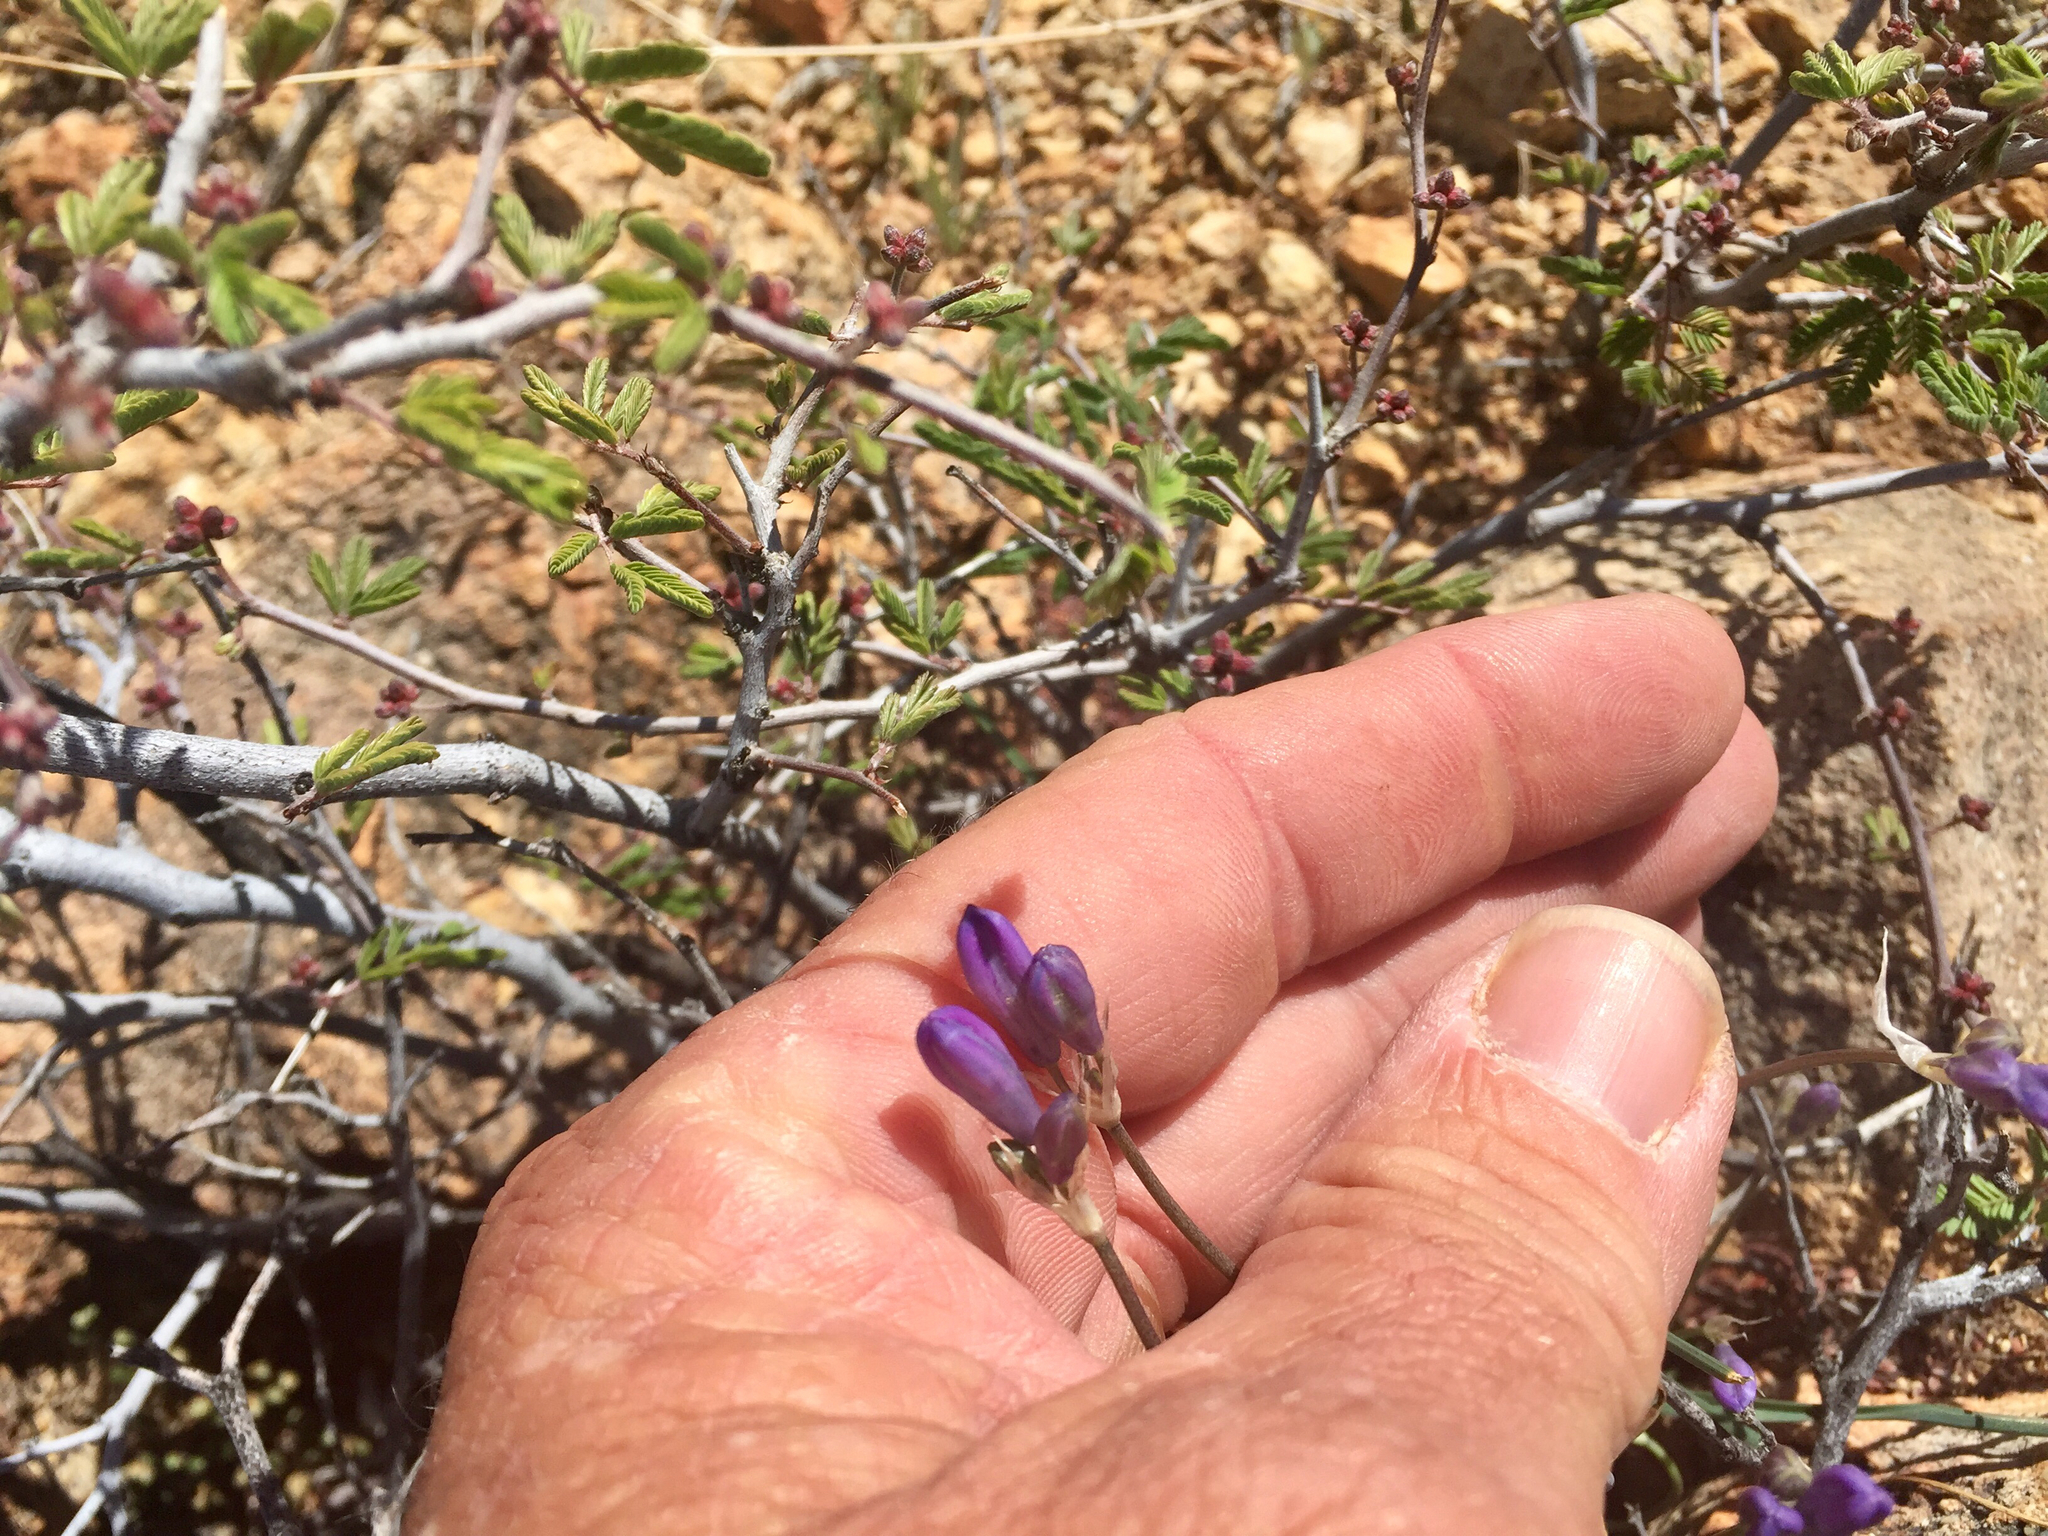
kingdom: Plantae
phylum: Tracheophyta
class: Liliopsida
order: Asparagales
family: Asparagaceae
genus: Dipterostemon
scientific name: Dipterostemon capitatus
